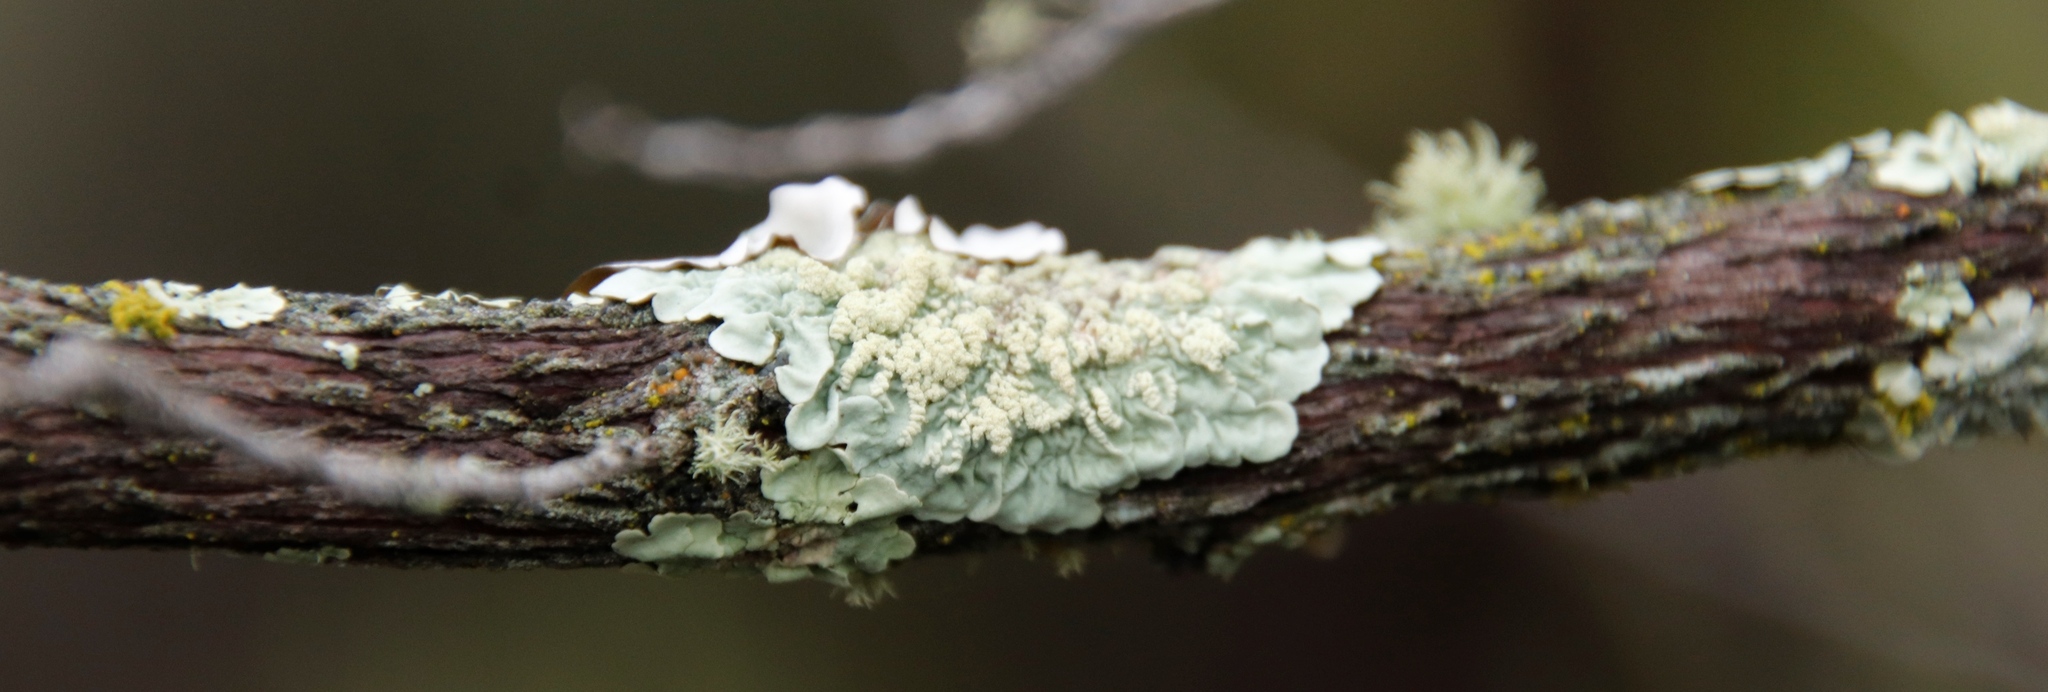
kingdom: Fungi
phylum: Ascomycota
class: Lecanoromycetes
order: Lecanorales
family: Parmeliaceae
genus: Flavoparmelia
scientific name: Flavoparmelia soredians
